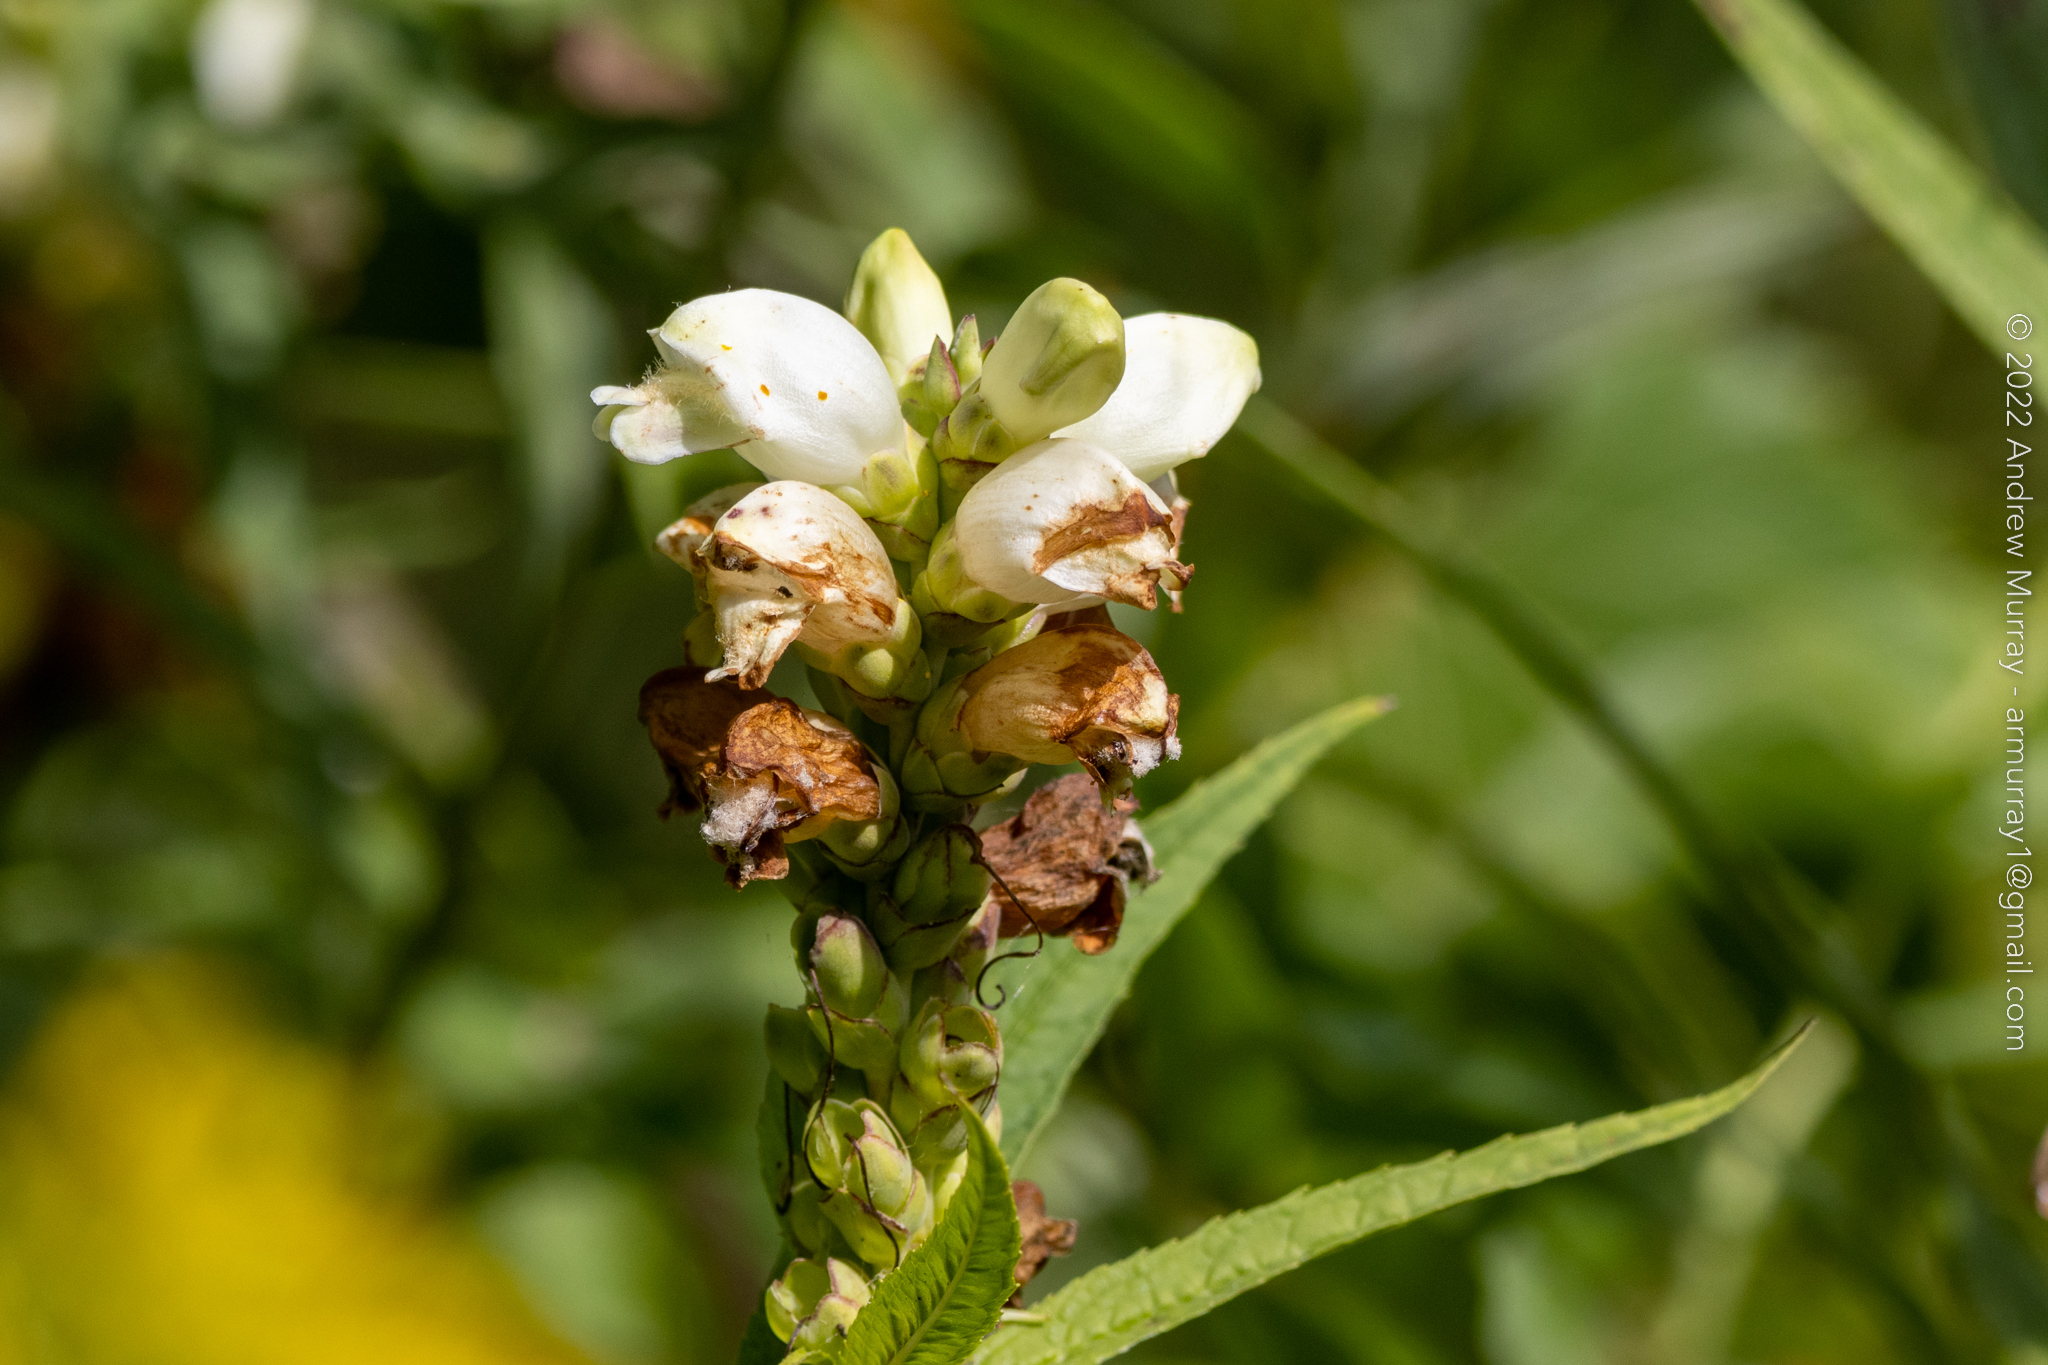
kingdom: Plantae
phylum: Tracheophyta
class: Magnoliopsida
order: Lamiales
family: Plantaginaceae
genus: Chelone
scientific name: Chelone glabra
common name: Snakehead
